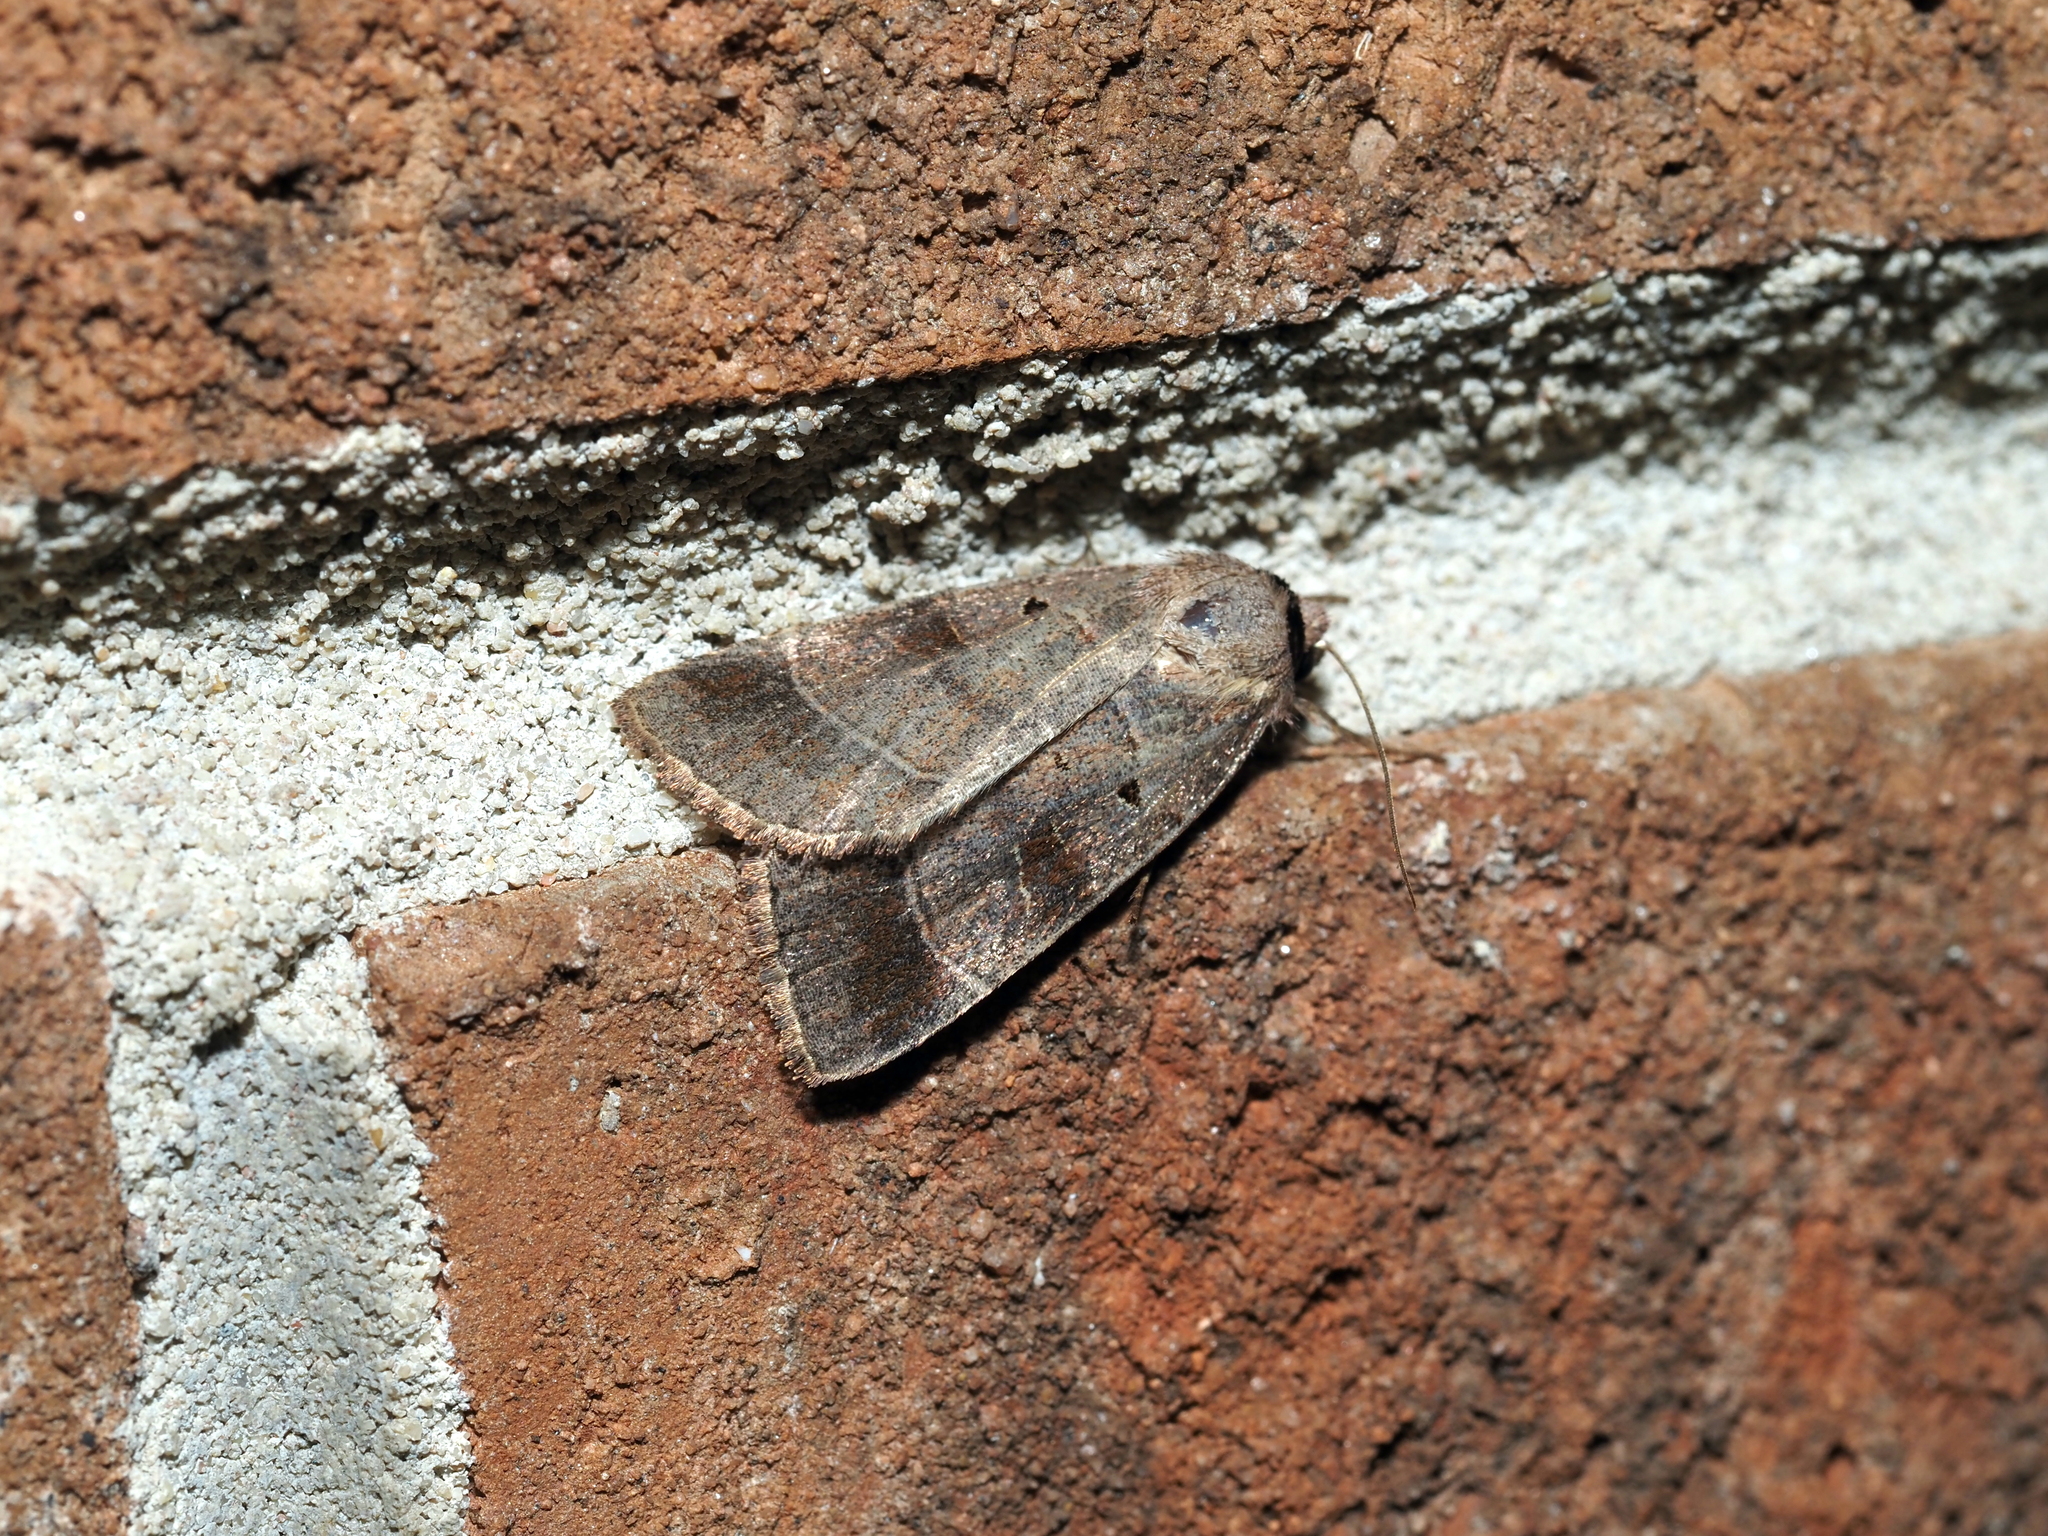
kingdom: Animalia
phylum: Arthropoda
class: Insecta
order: Lepidoptera
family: Noctuidae
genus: Agnorisma
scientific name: Agnorisma badinodis
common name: Pale-banded dart
